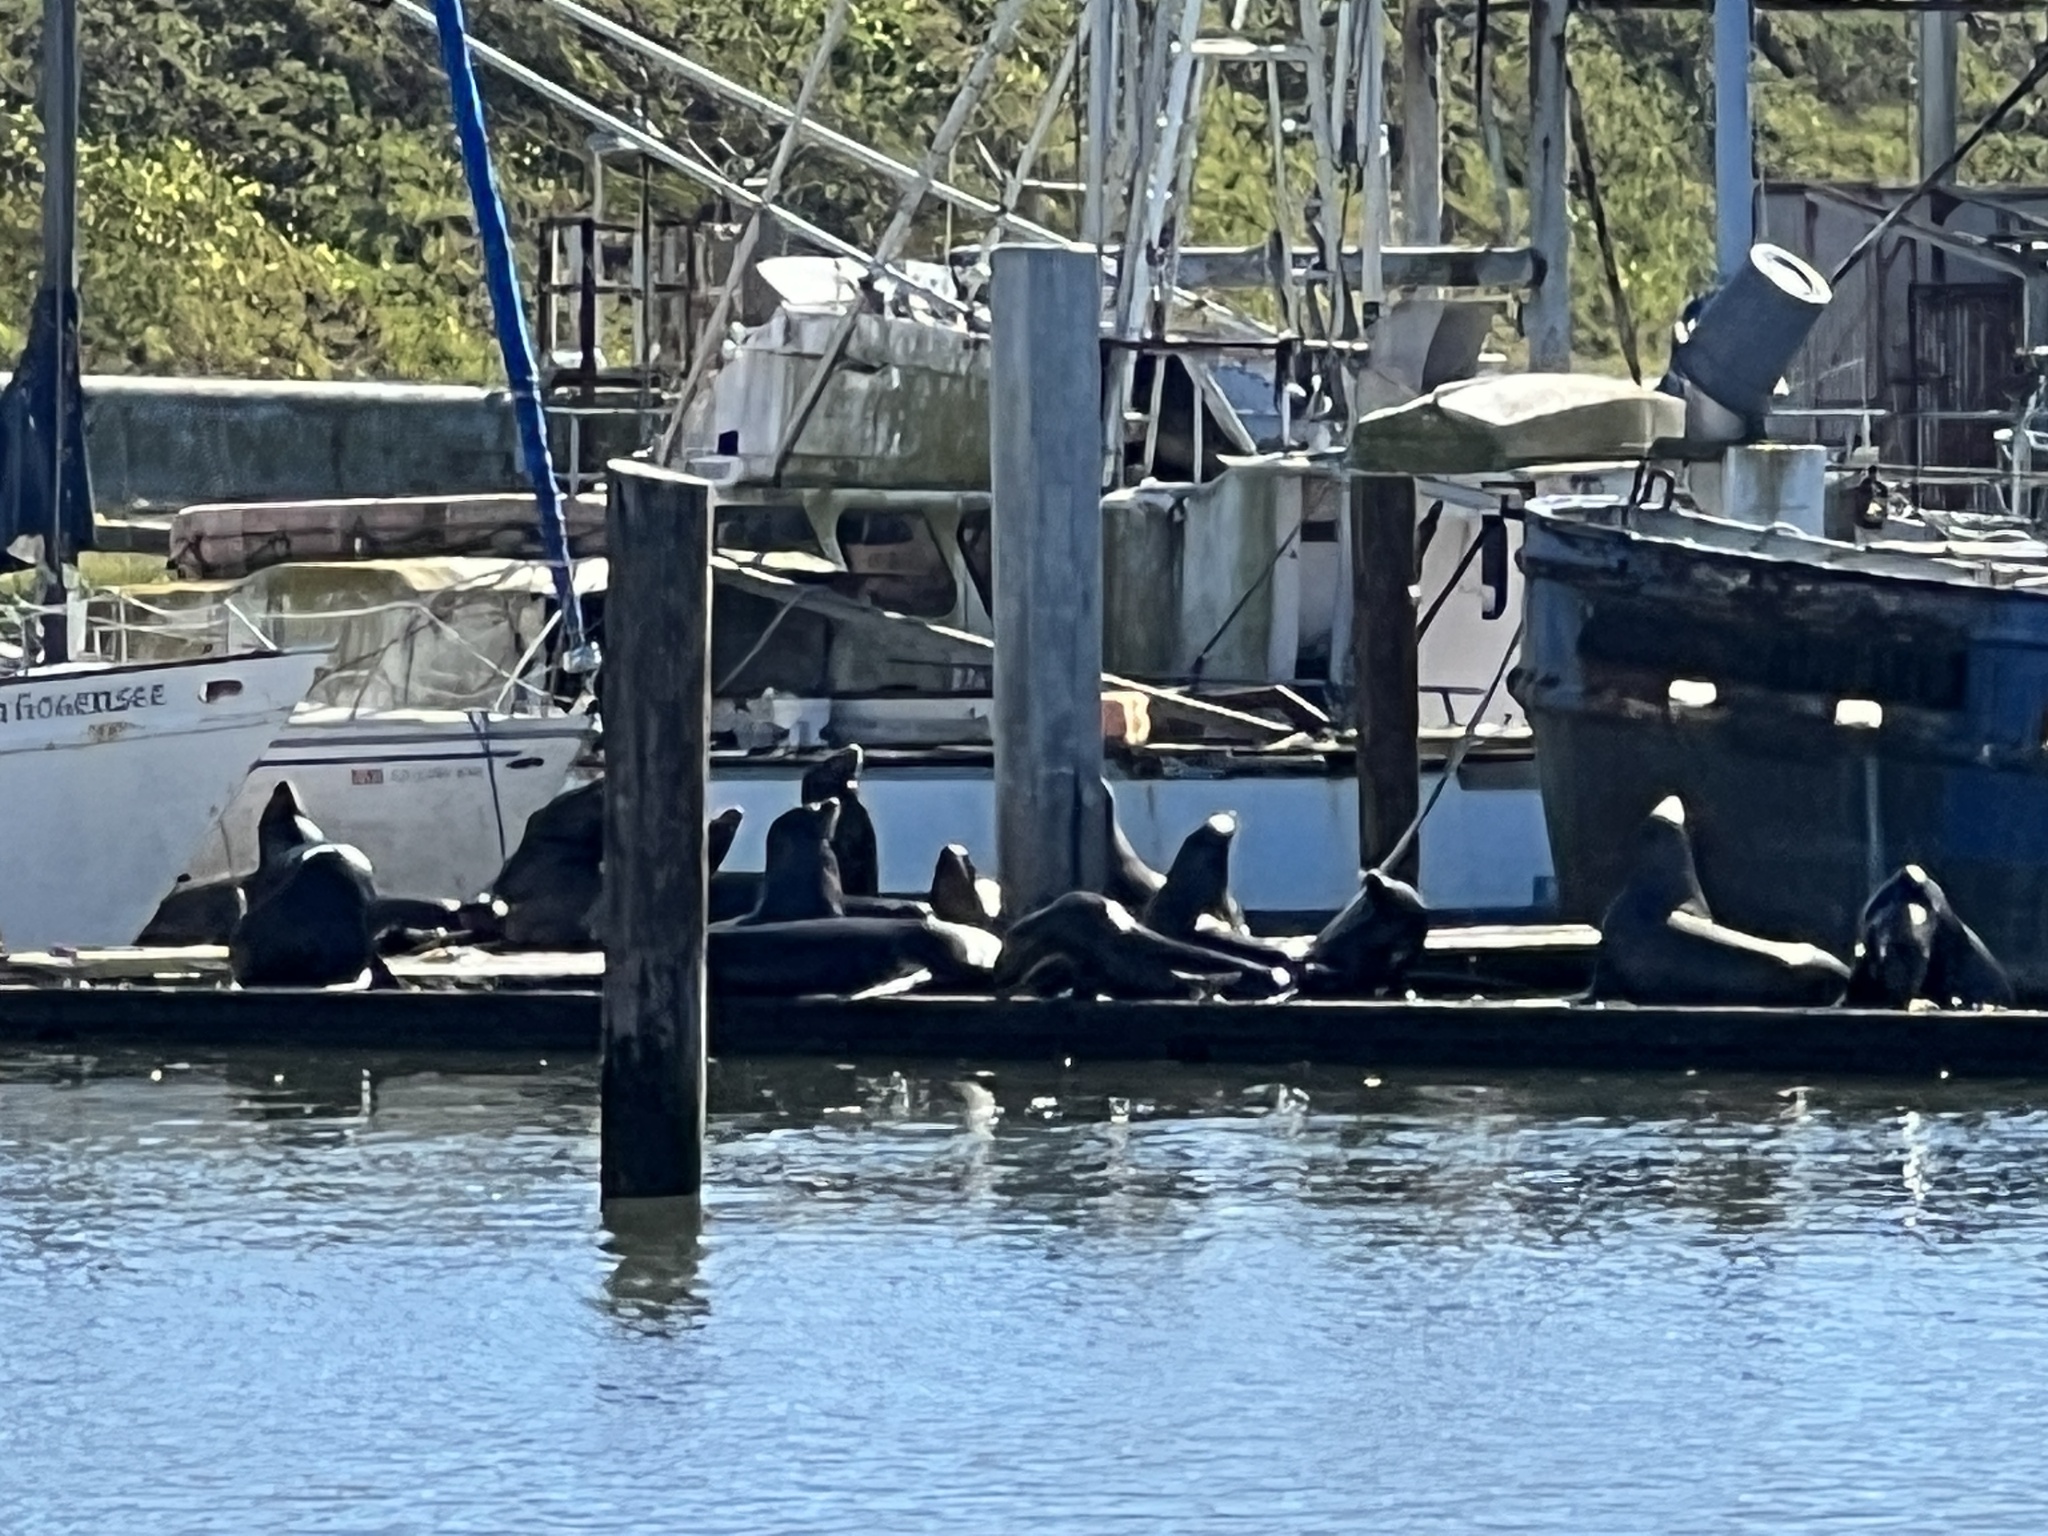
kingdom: Animalia
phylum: Chordata
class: Mammalia
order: Carnivora
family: Otariidae
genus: Zalophus
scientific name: Zalophus californianus
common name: California sea lion
